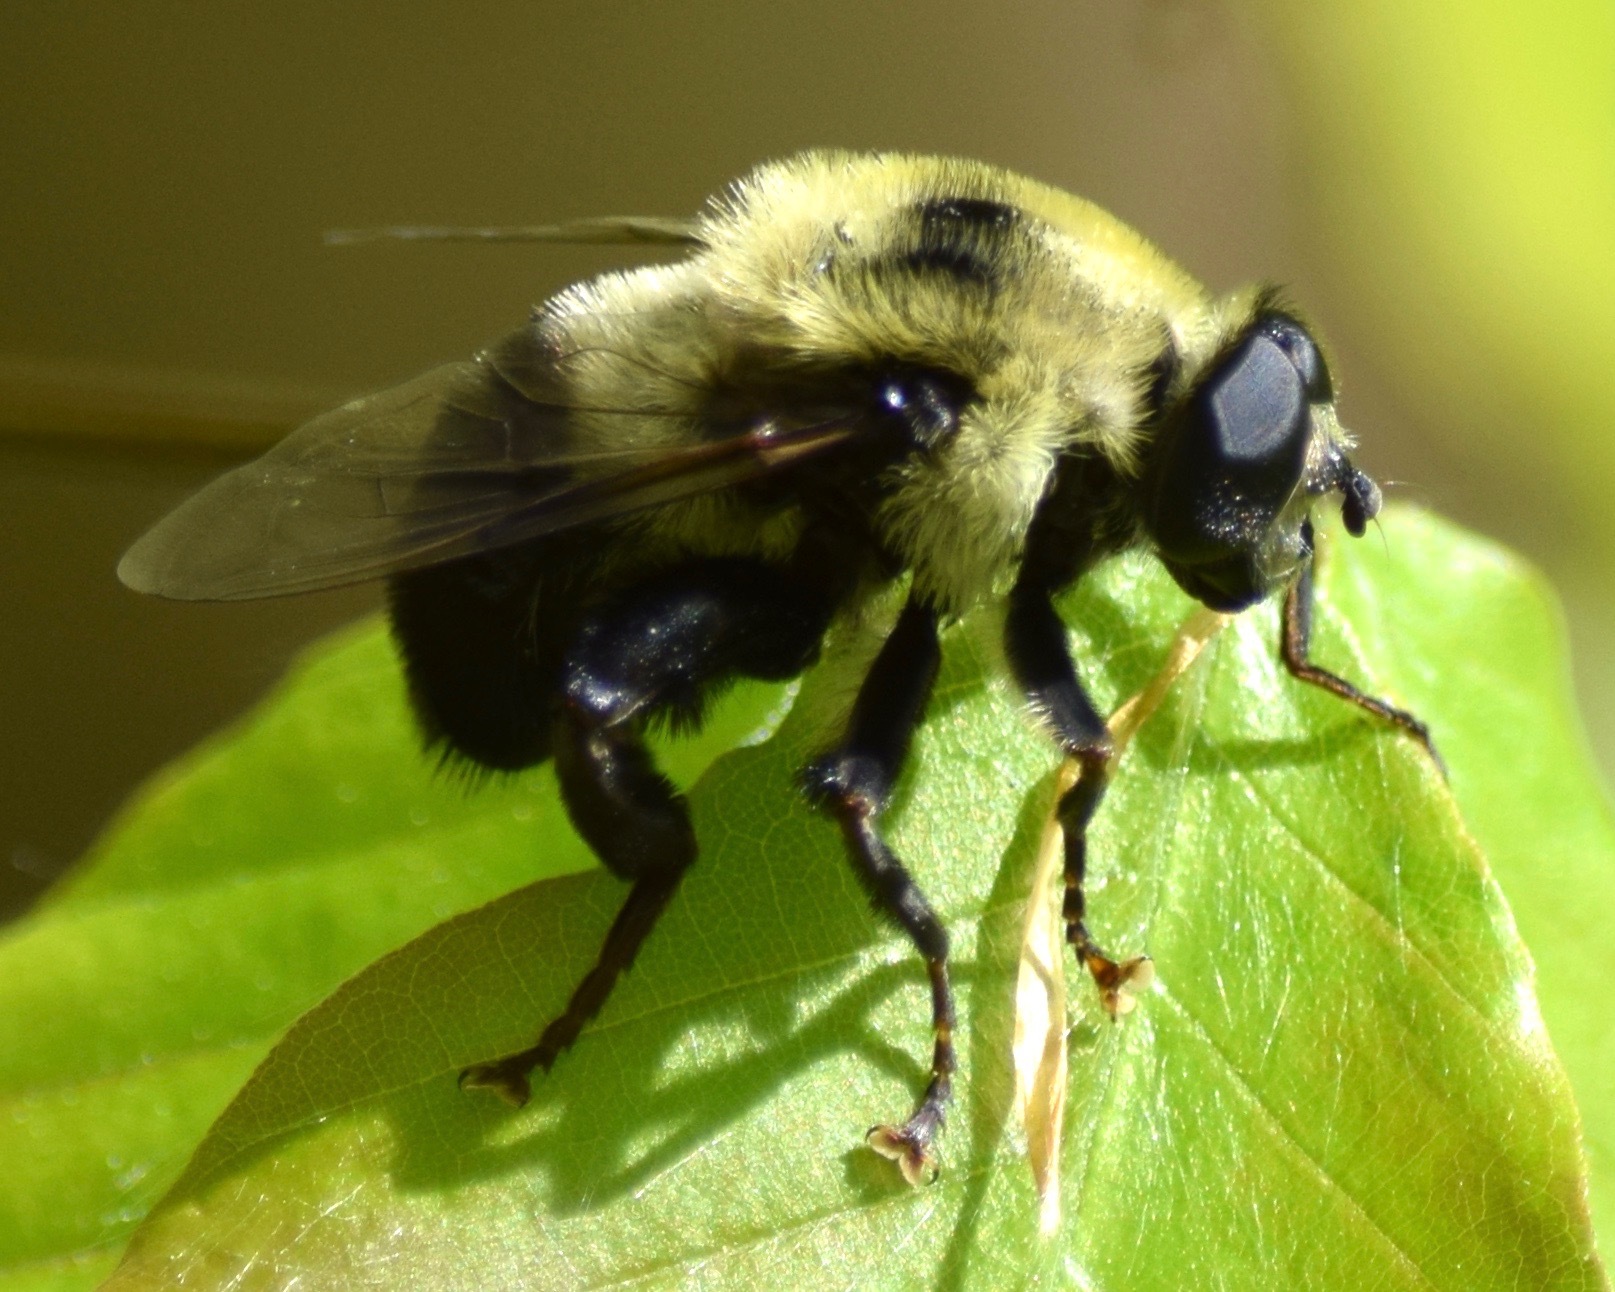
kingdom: Animalia
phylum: Arthropoda
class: Insecta
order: Diptera
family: Syrphidae
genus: Imatisma
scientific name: Imatisma posticata
